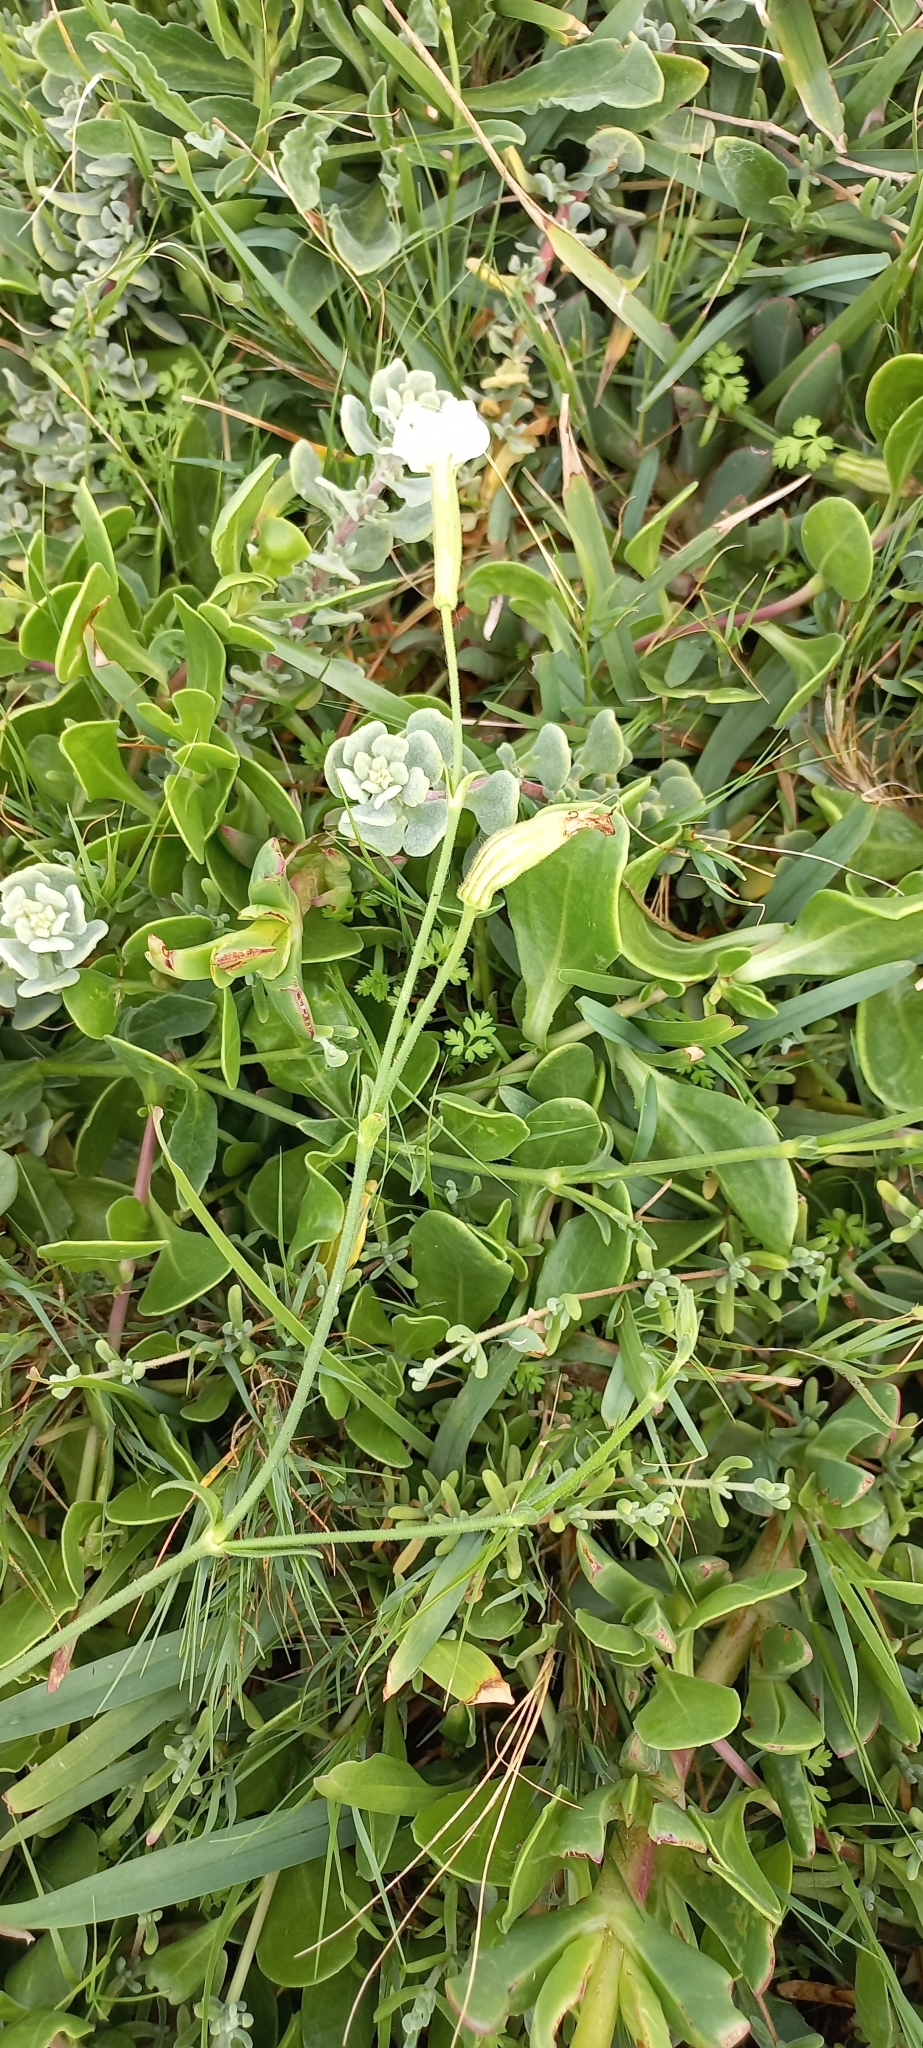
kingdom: Plantae
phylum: Tracheophyta
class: Magnoliopsida
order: Caryophyllales
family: Caryophyllaceae
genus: Silene
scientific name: Silene undulata
